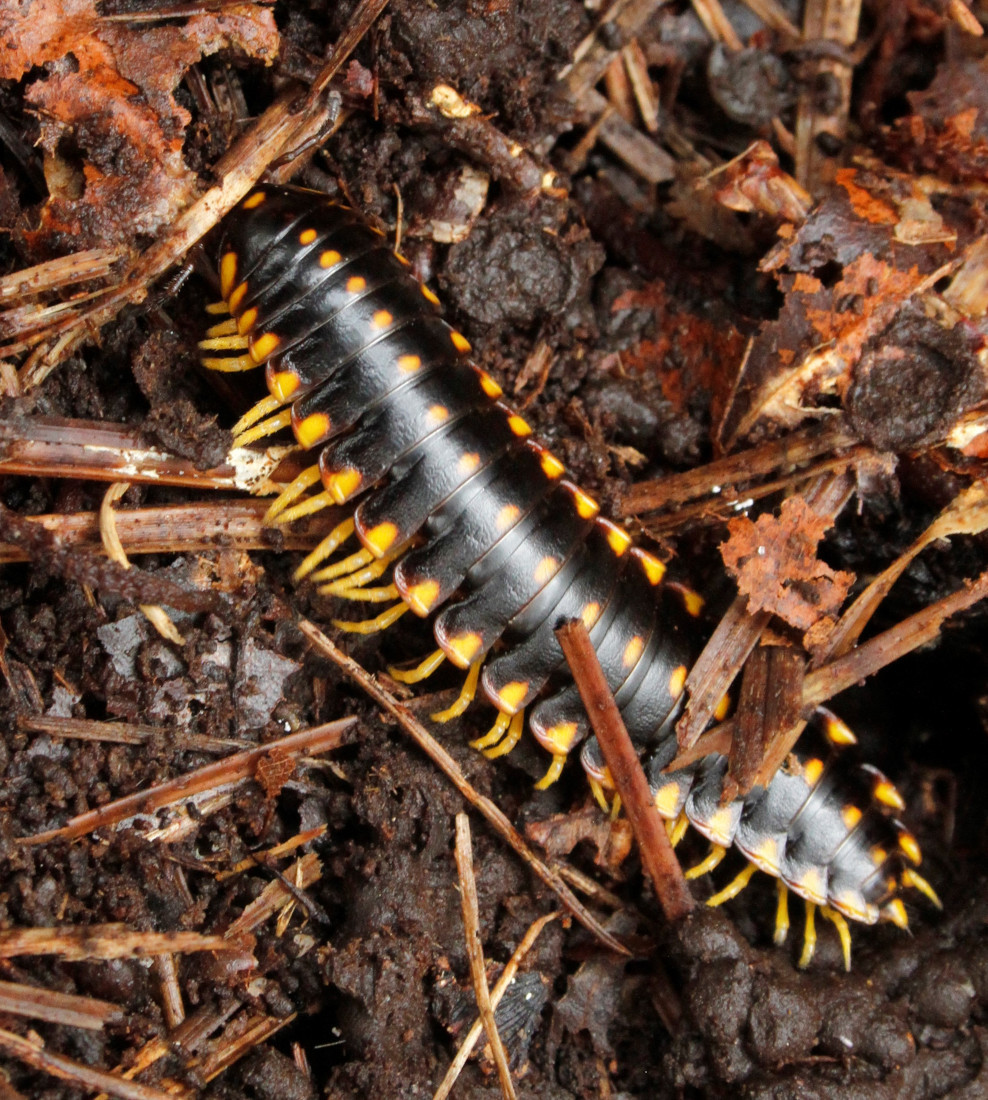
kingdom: Animalia
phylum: Arthropoda
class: Diplopoda
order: Polydesmida
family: Xystodesmidae
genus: Apheloria
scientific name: Apheloria tigana
